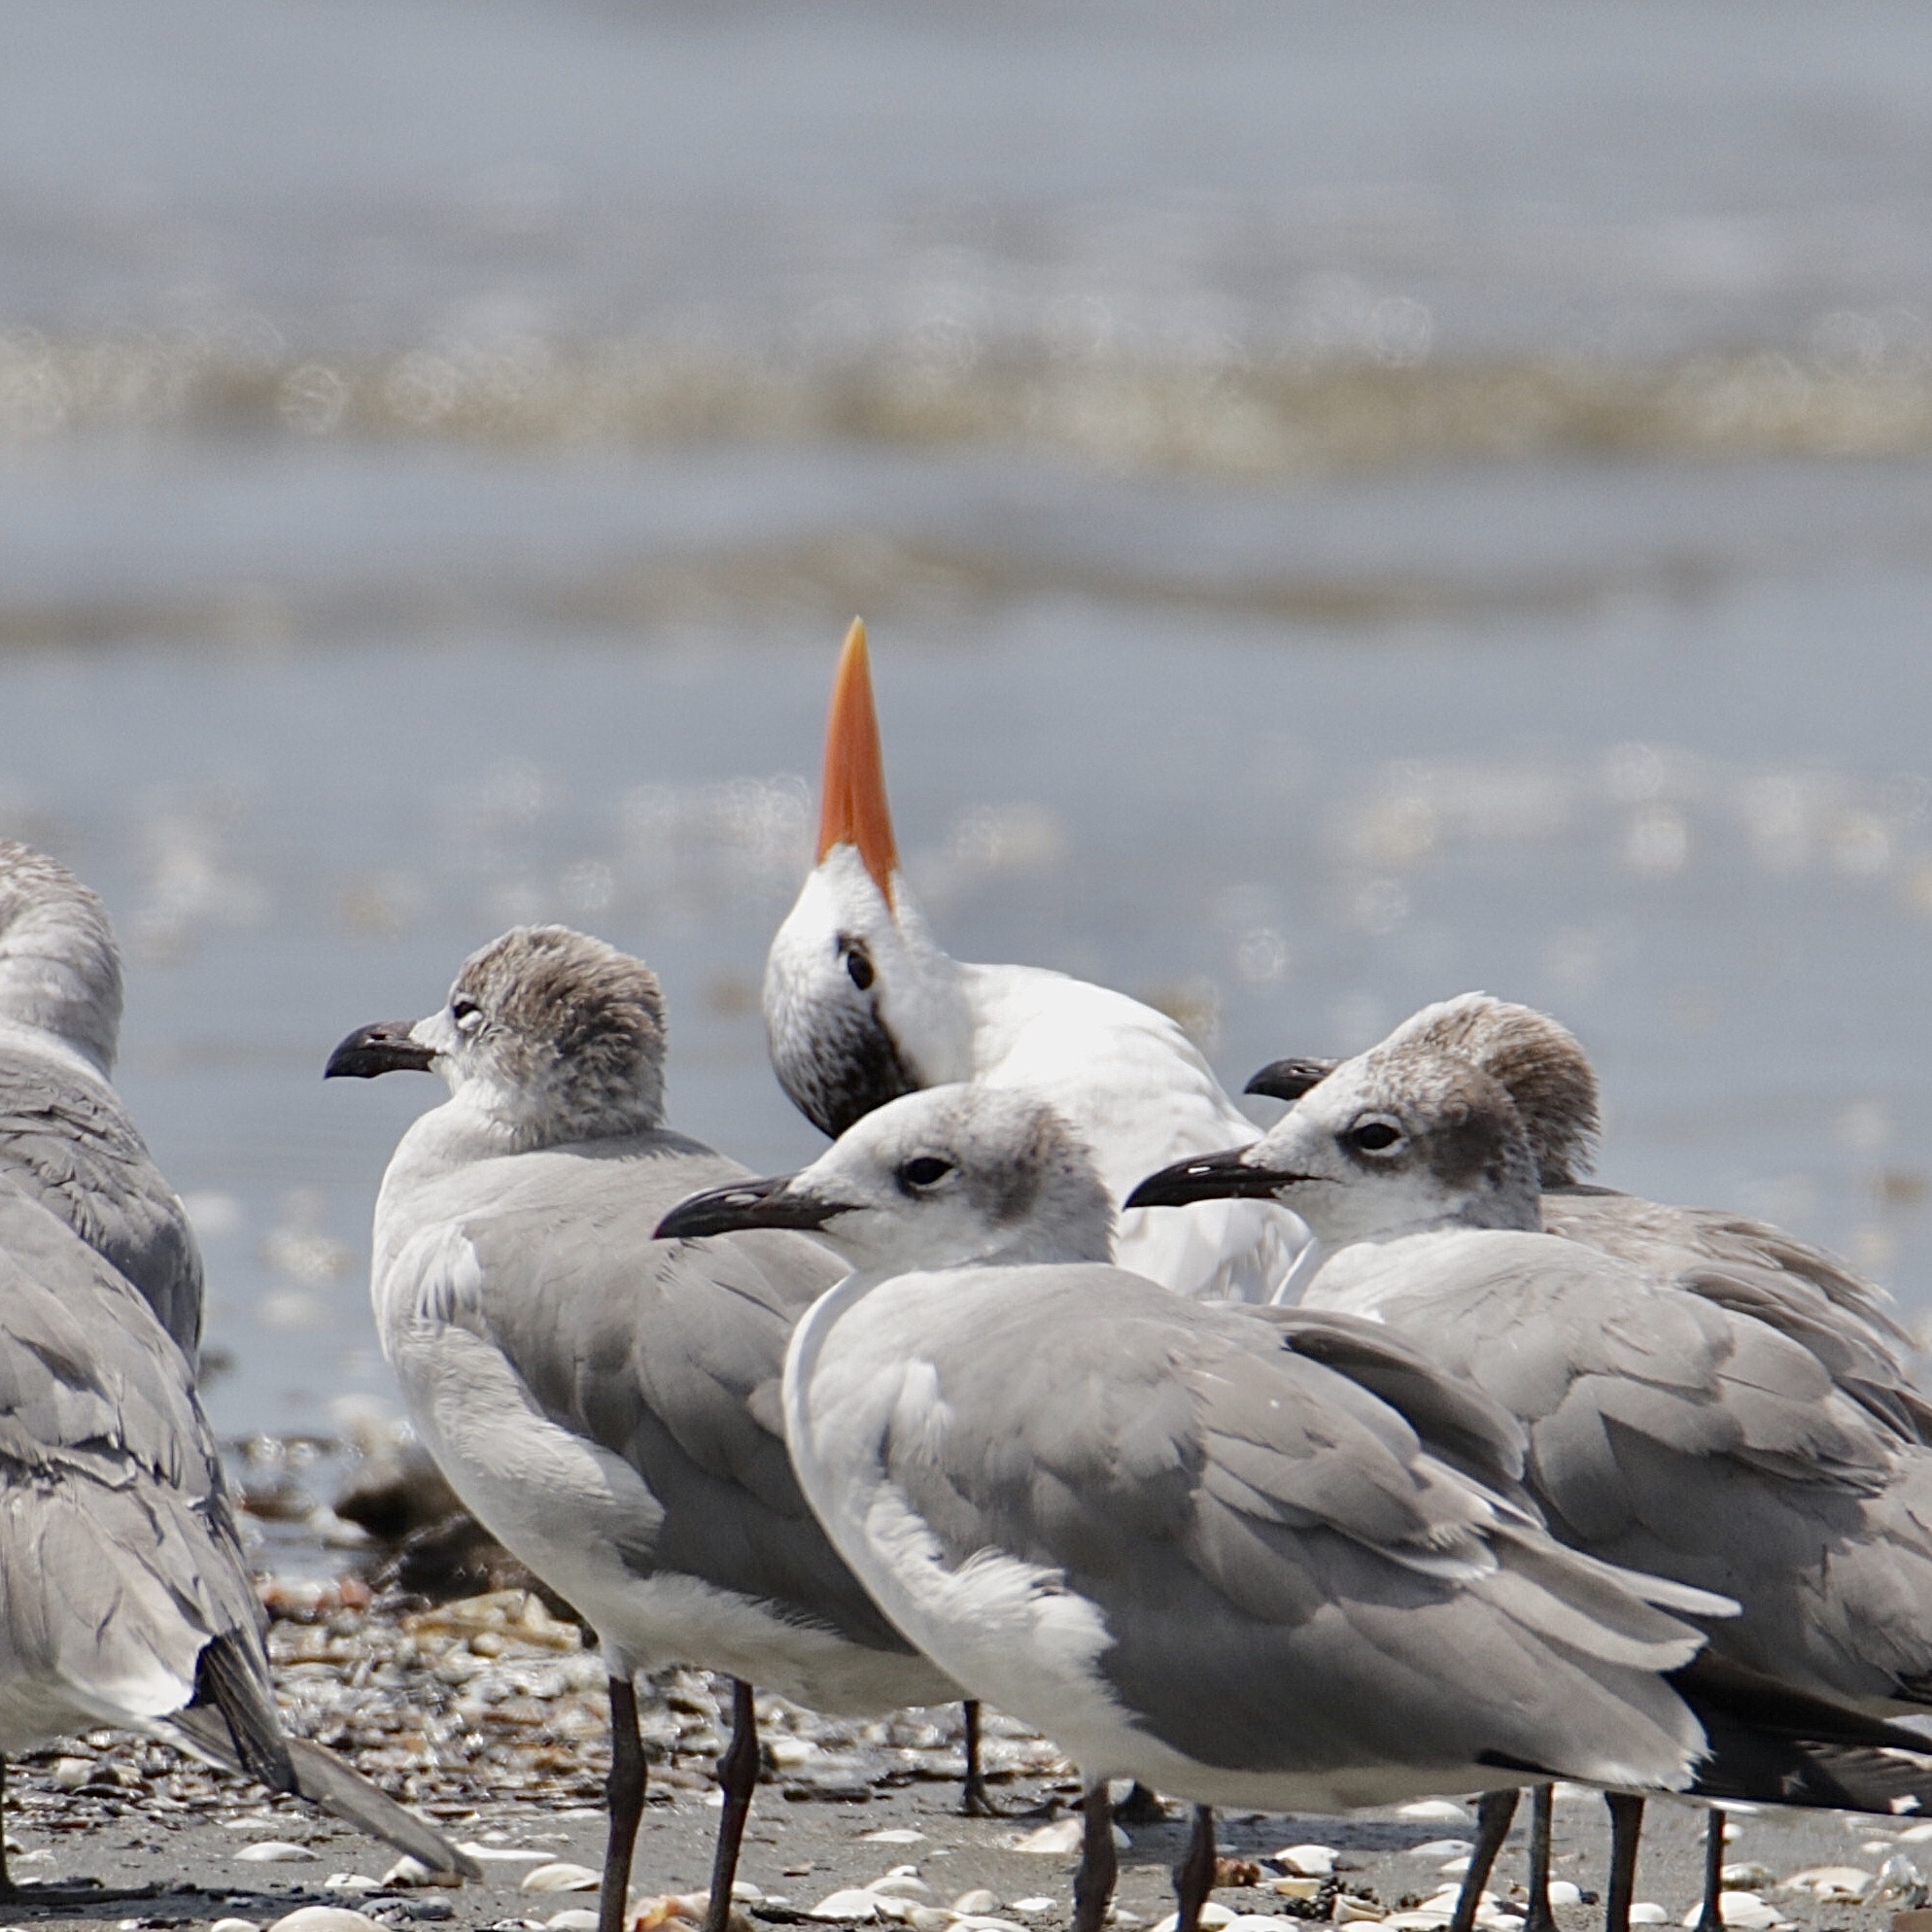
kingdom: Animalia
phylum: Chordata
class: Aves
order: Charadriiformes
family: Laridae
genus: Thalasseus
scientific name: Thalasseus maximus
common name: Royal tern
